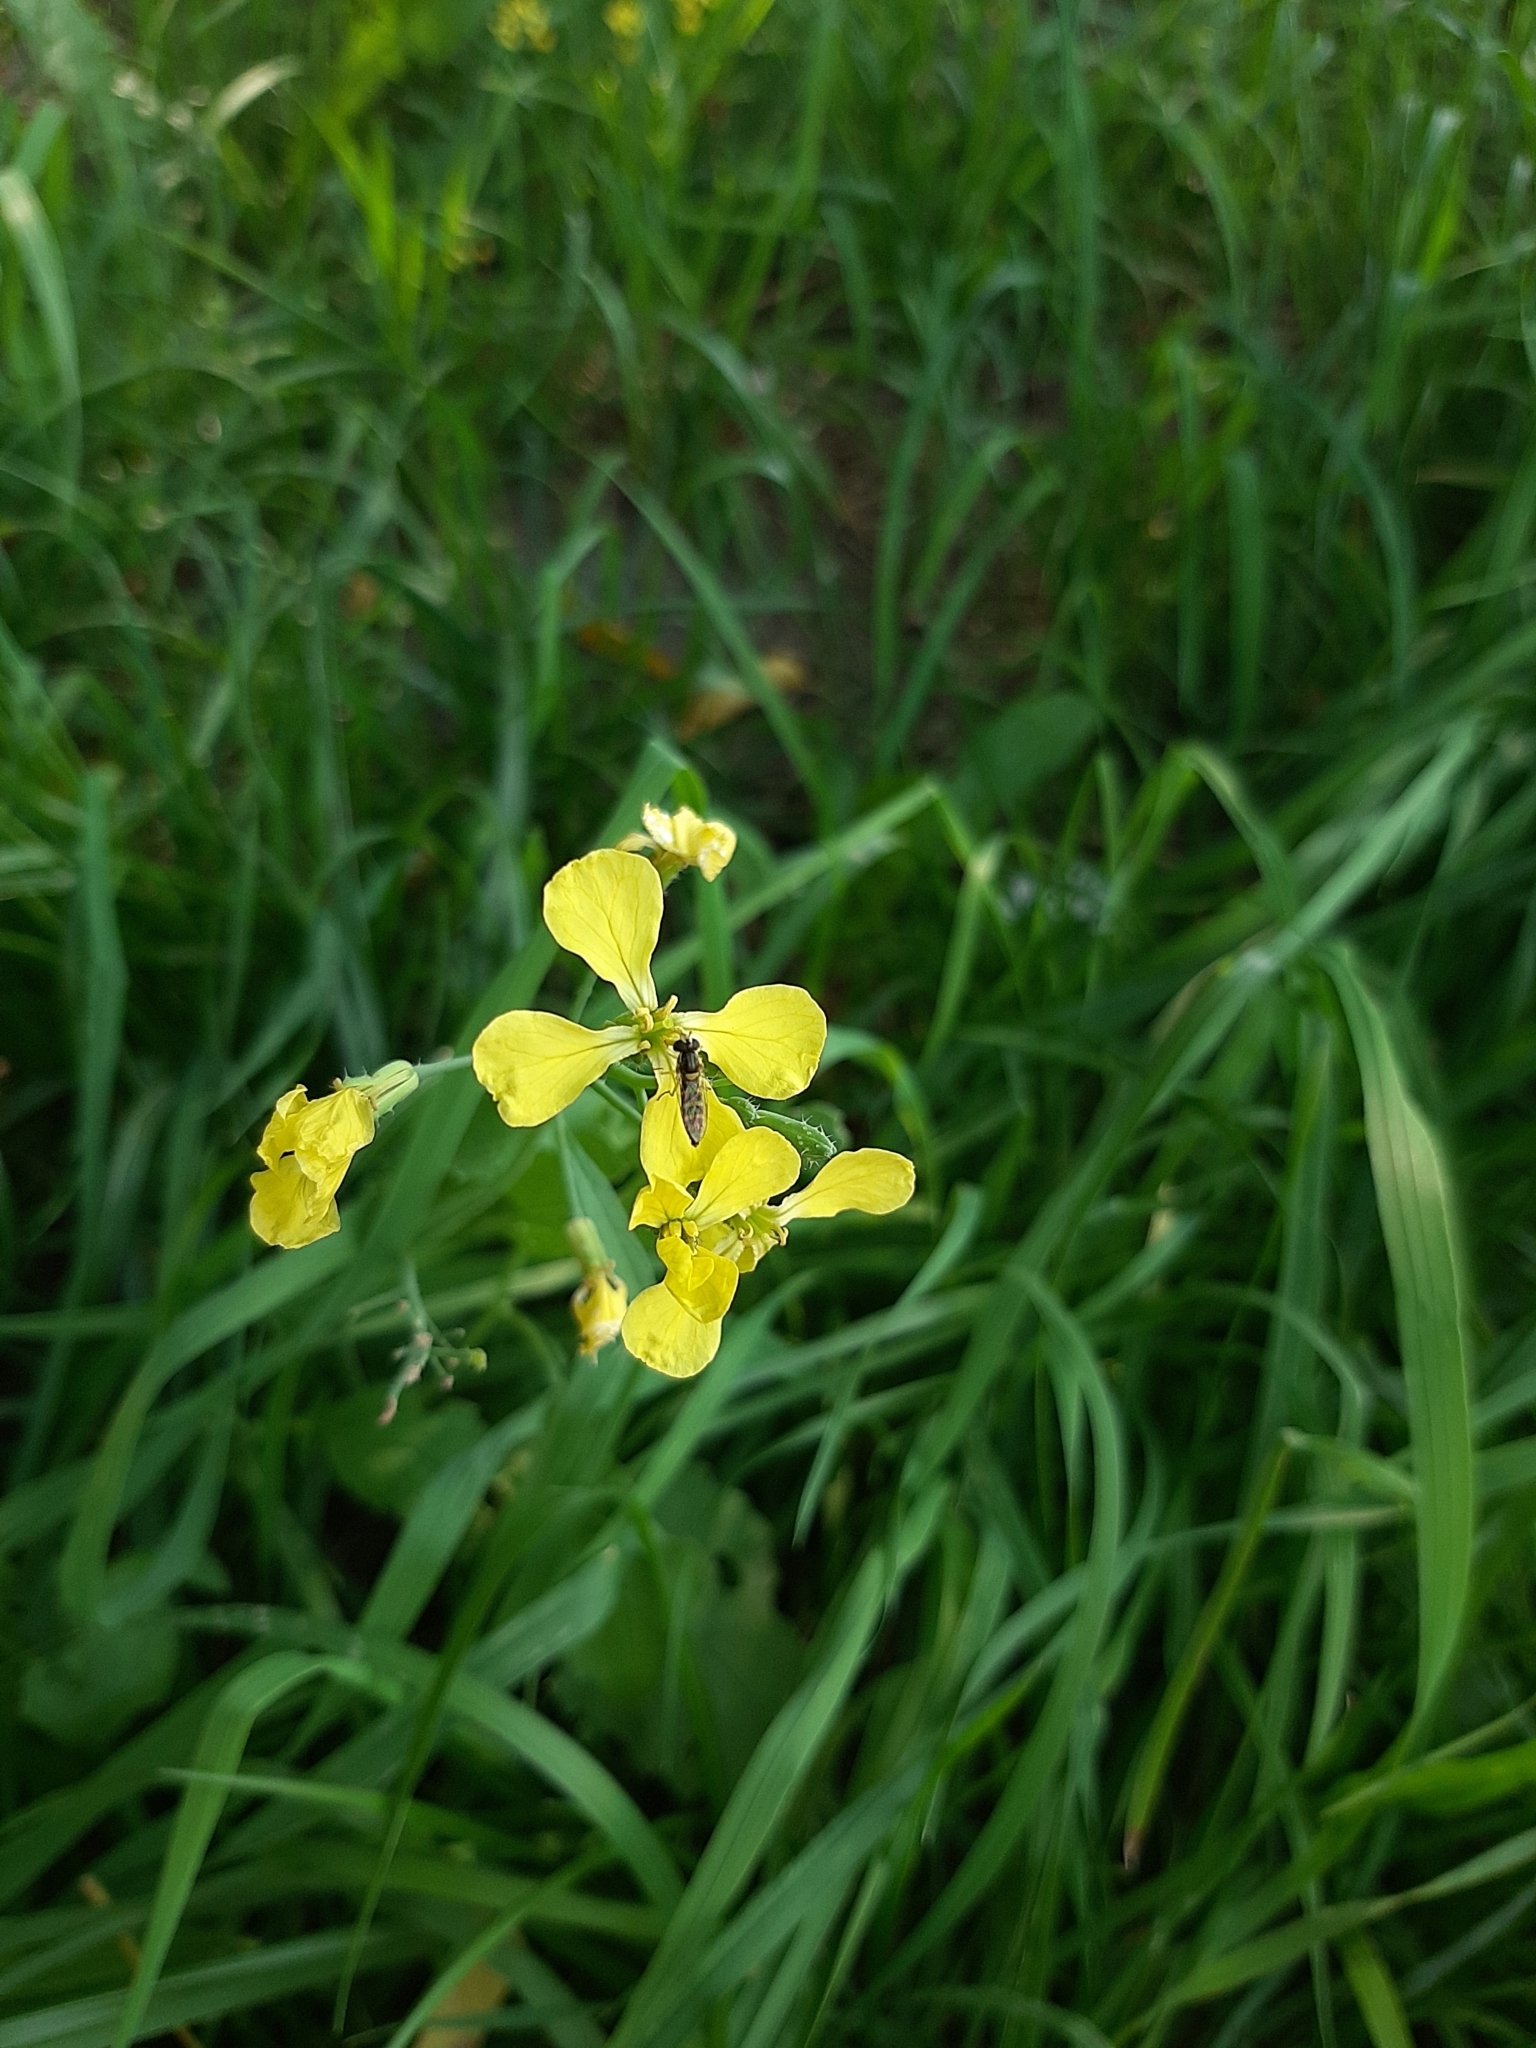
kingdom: Plantae
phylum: Tracheophyta
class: Magnoliopsida
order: Brassicales
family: Brassicaceae
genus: Raphanus
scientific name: Raphanus raphanistrum
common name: Wild radish
